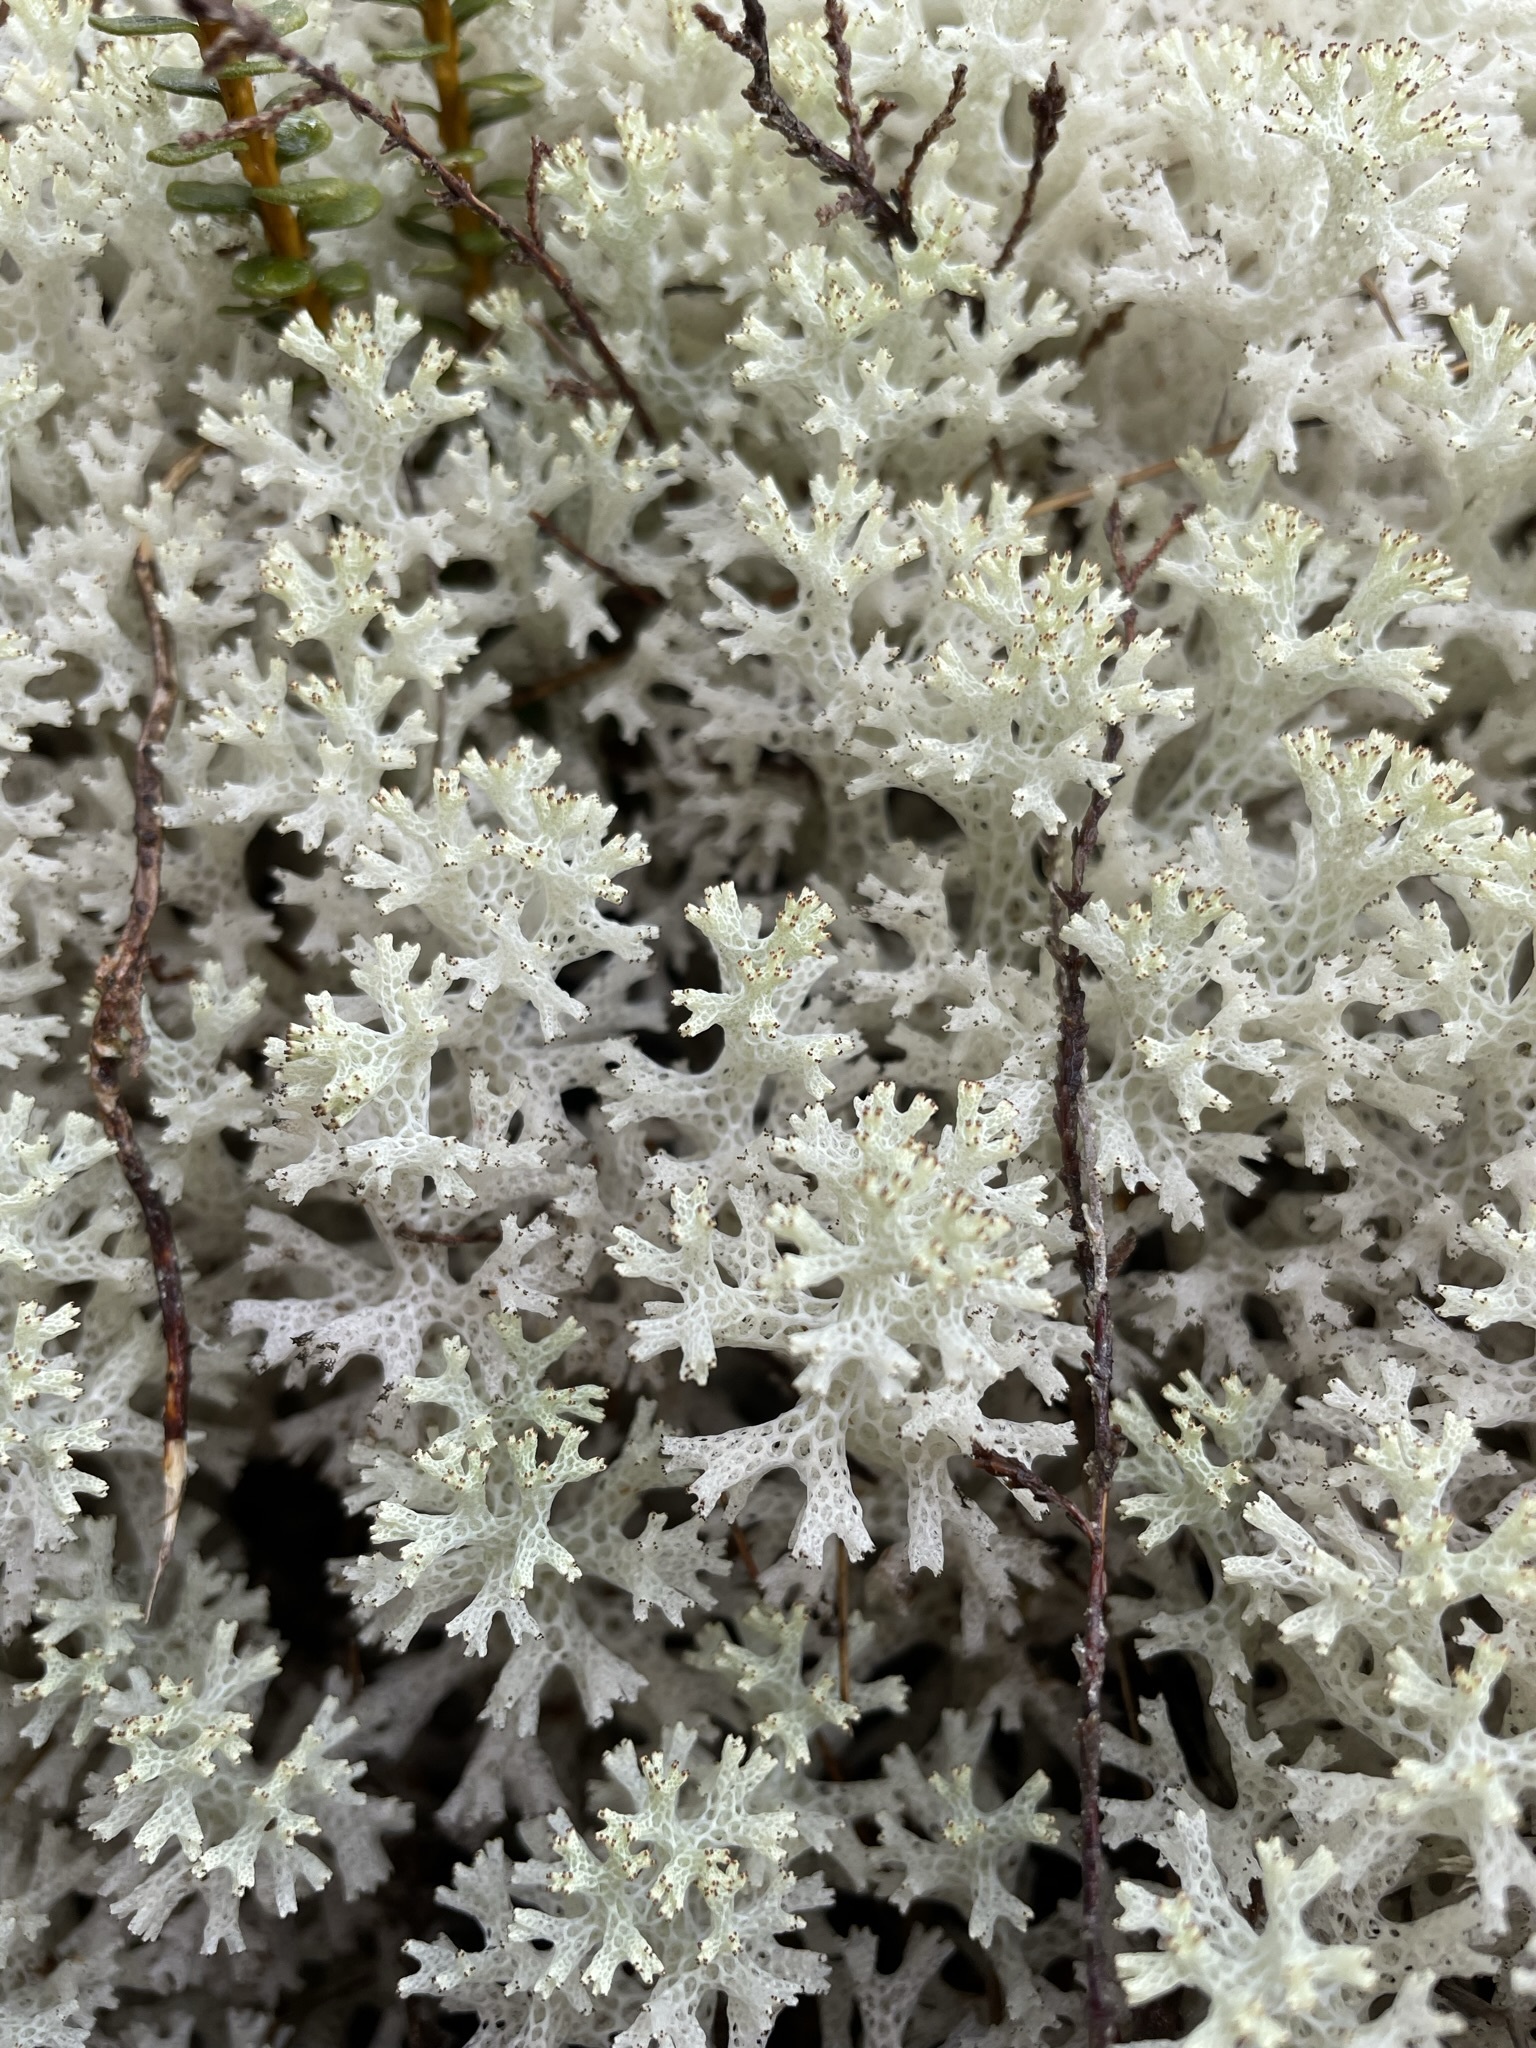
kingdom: Fungi
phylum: Ascomycota
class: Lecanoromycetes
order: Lecanorales
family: Cladoniaceae
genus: Pulchrocladia
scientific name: Pulchrocladia retipora
